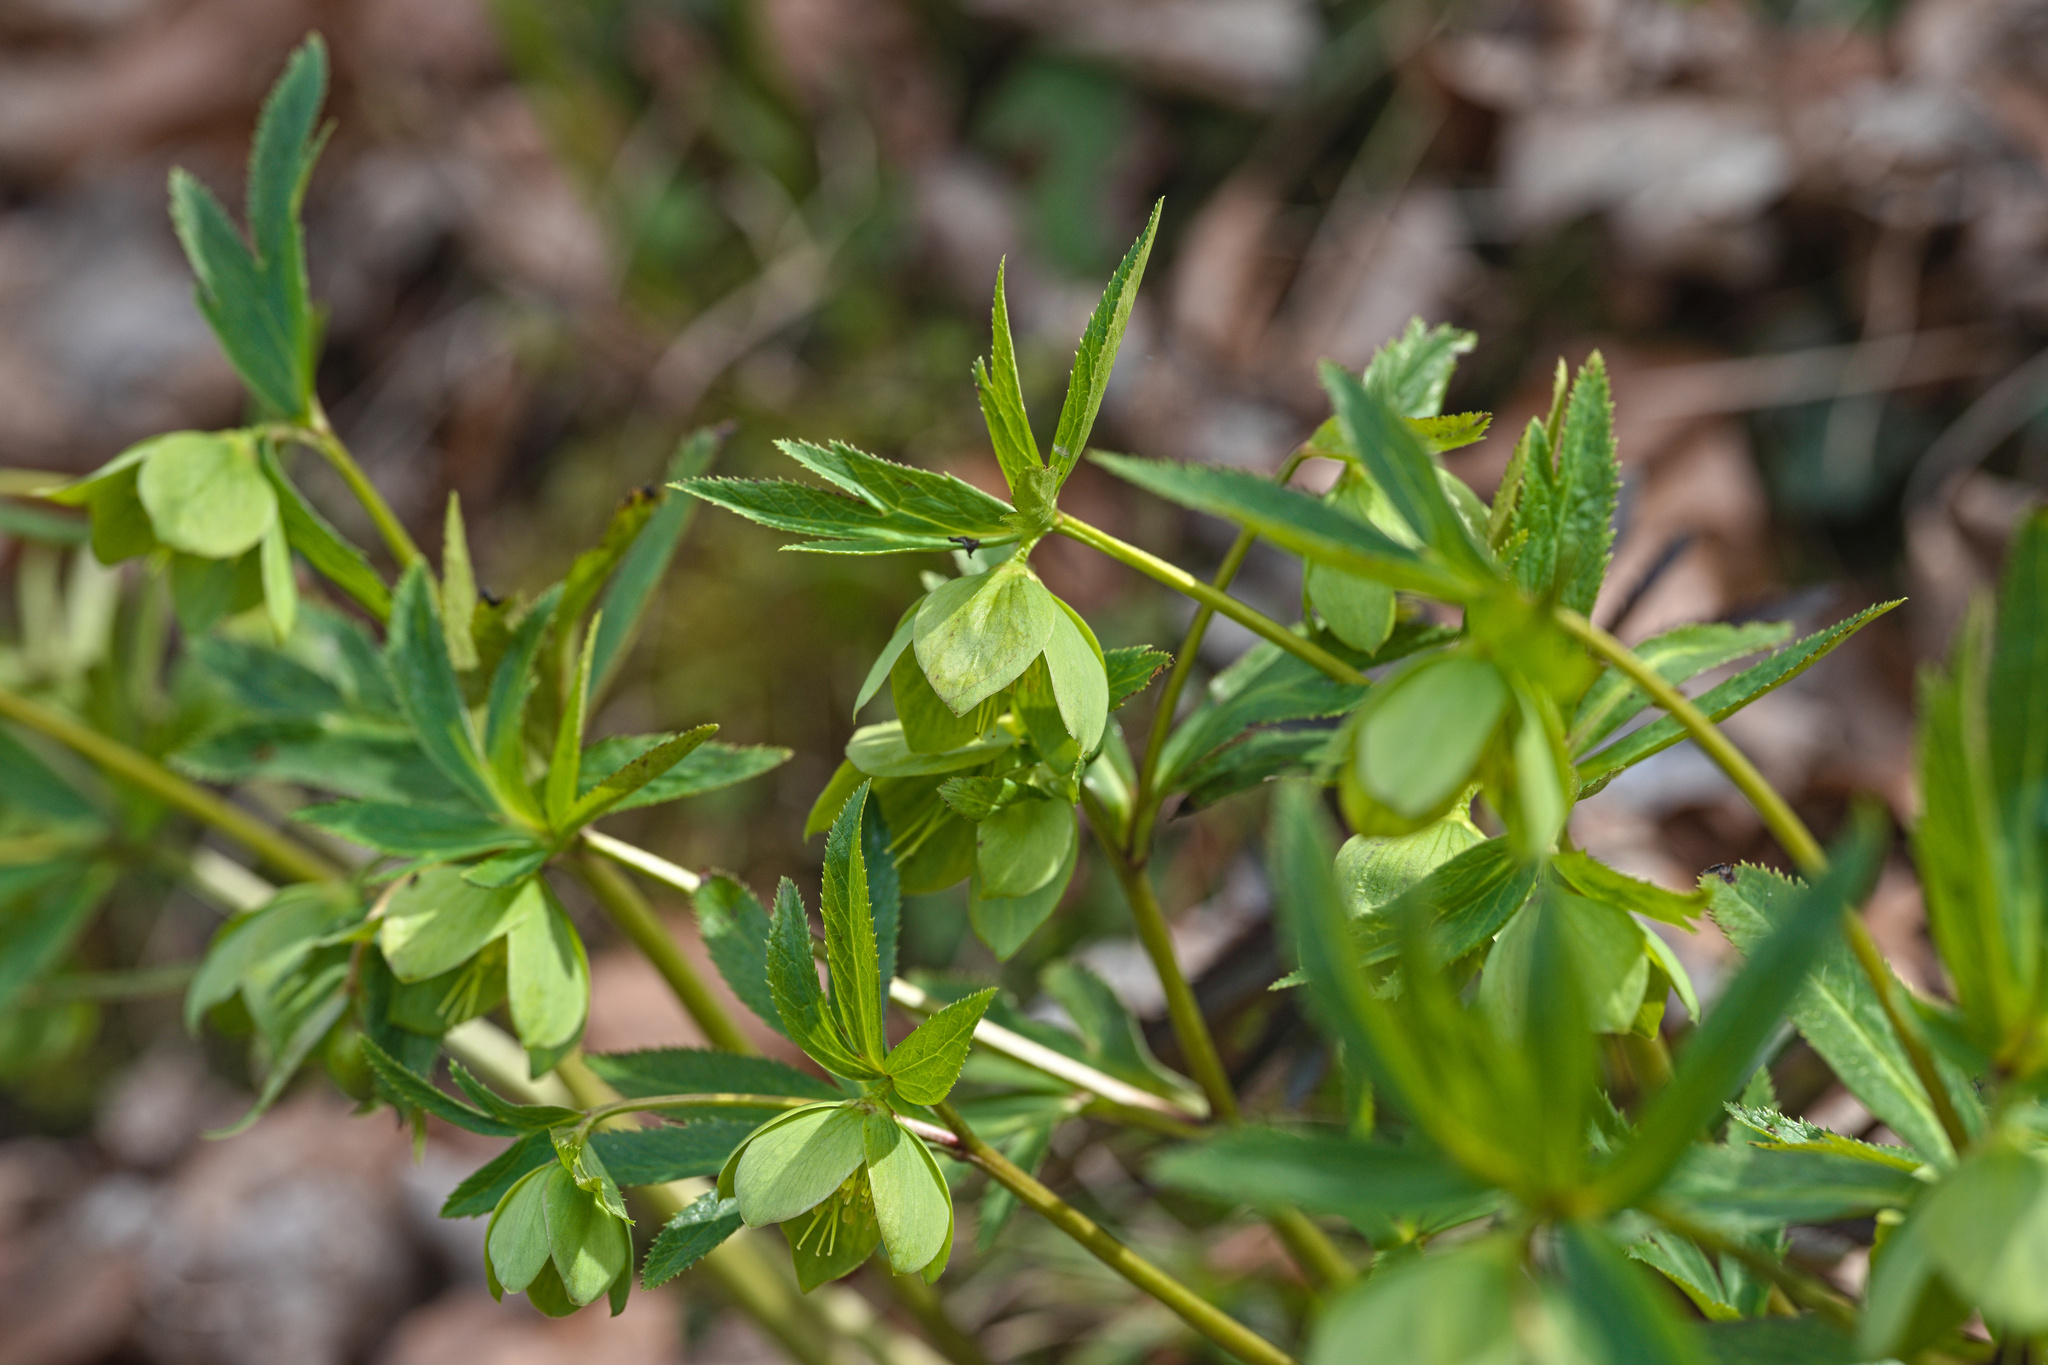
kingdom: Plantae
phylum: Tracheophyta
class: Magnoliopsida
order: Ranunculales
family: Ranunculaceae
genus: Helleborus
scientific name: Helleborus viridis
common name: Green hellebore
